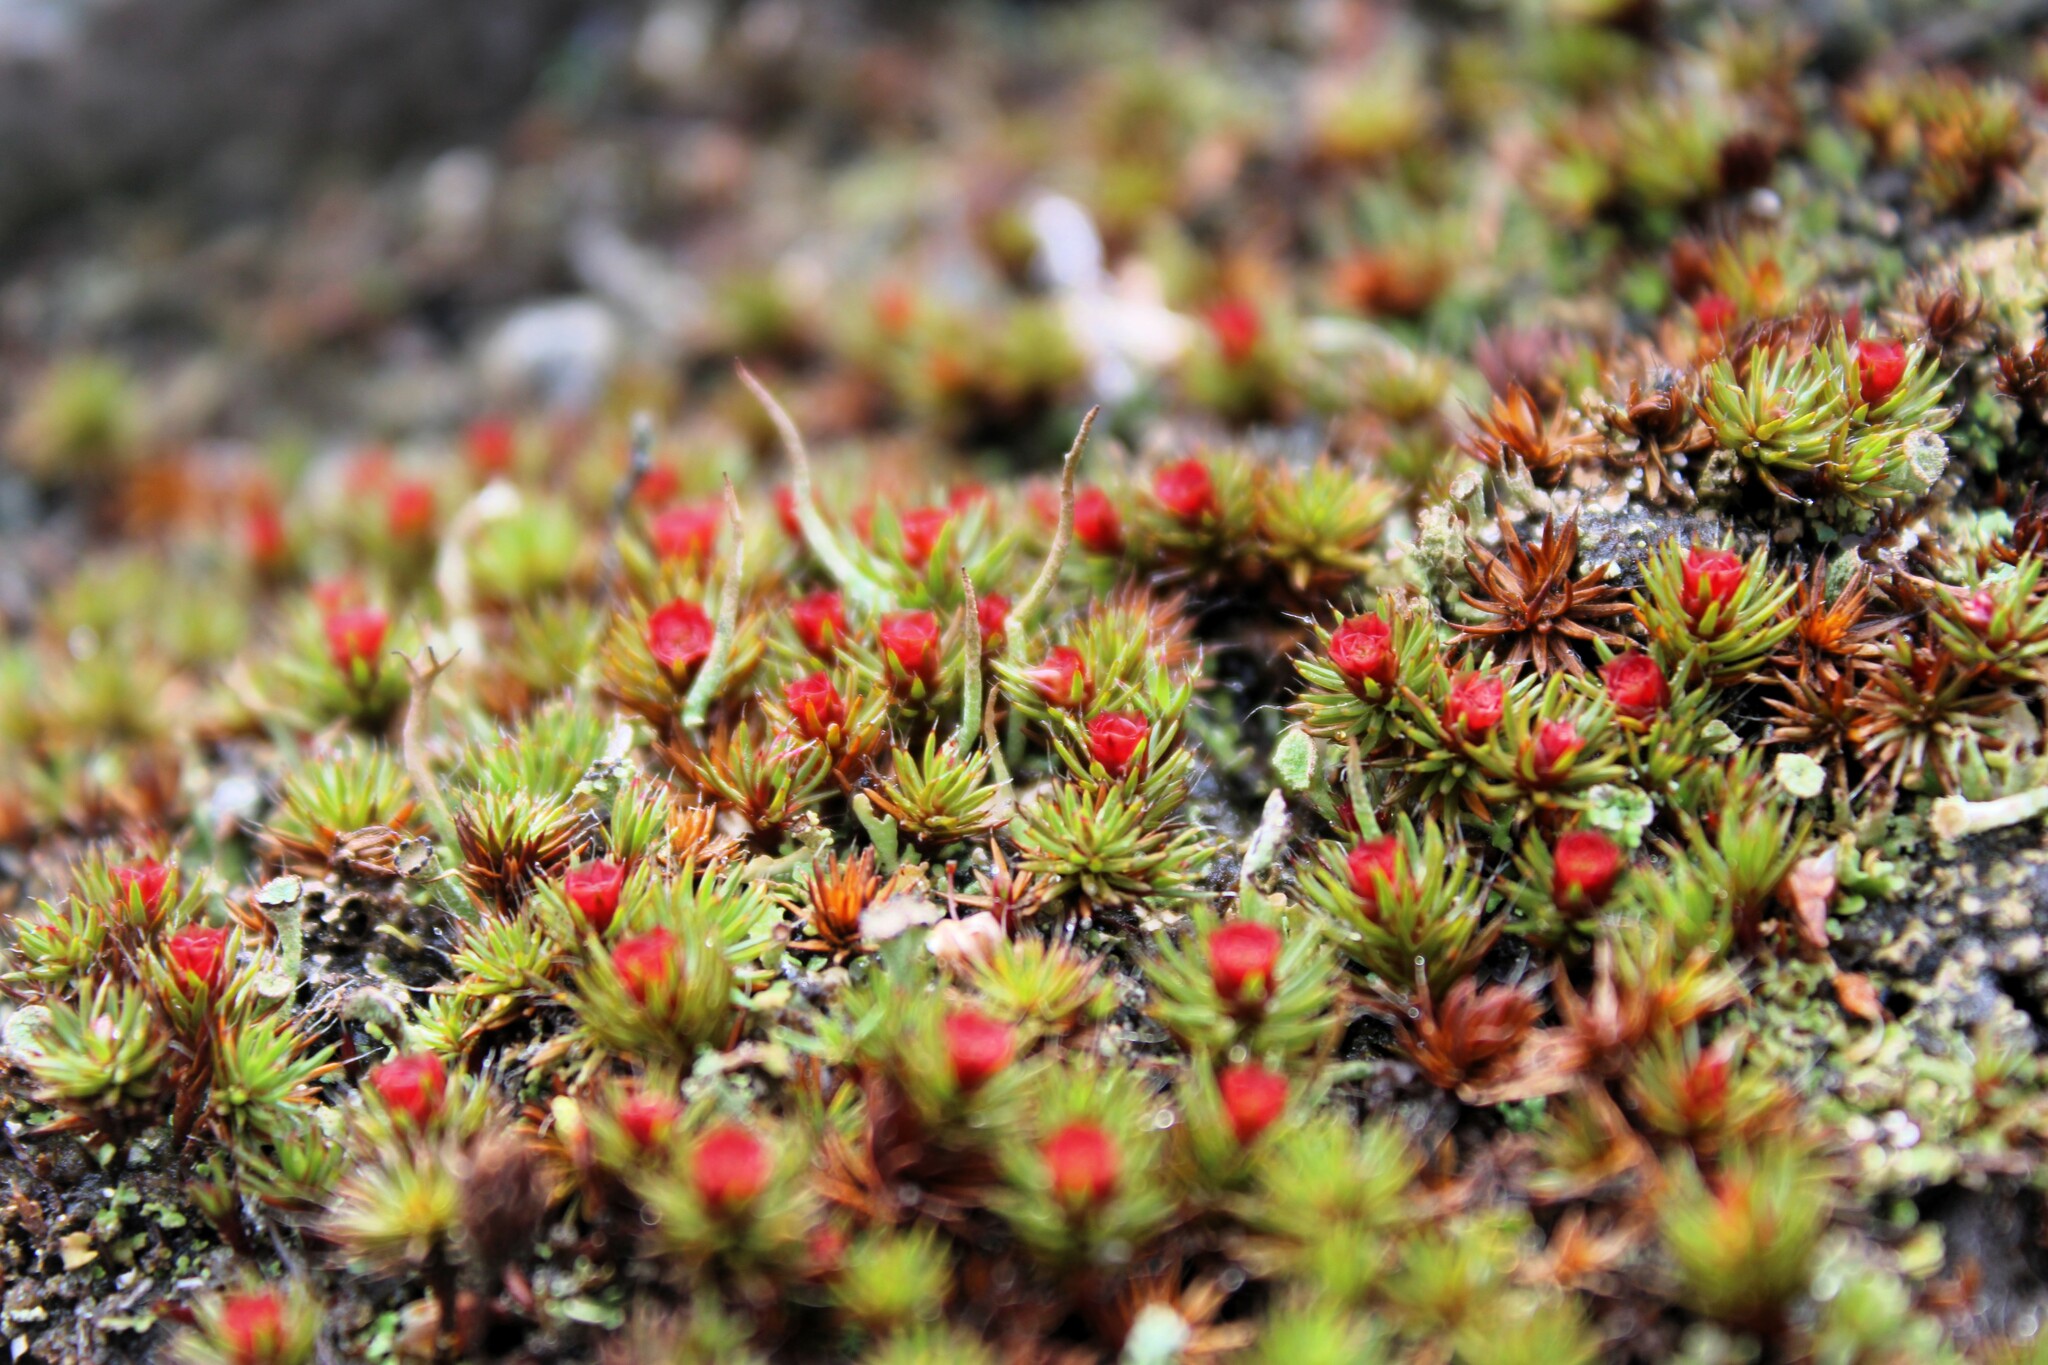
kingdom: Plantae
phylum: Bryophyta
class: Polytrichopsida
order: Polytrichales
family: Polytrichaceae
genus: Polytrichum
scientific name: Polytrichum piliferum
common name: Bristly haircap
